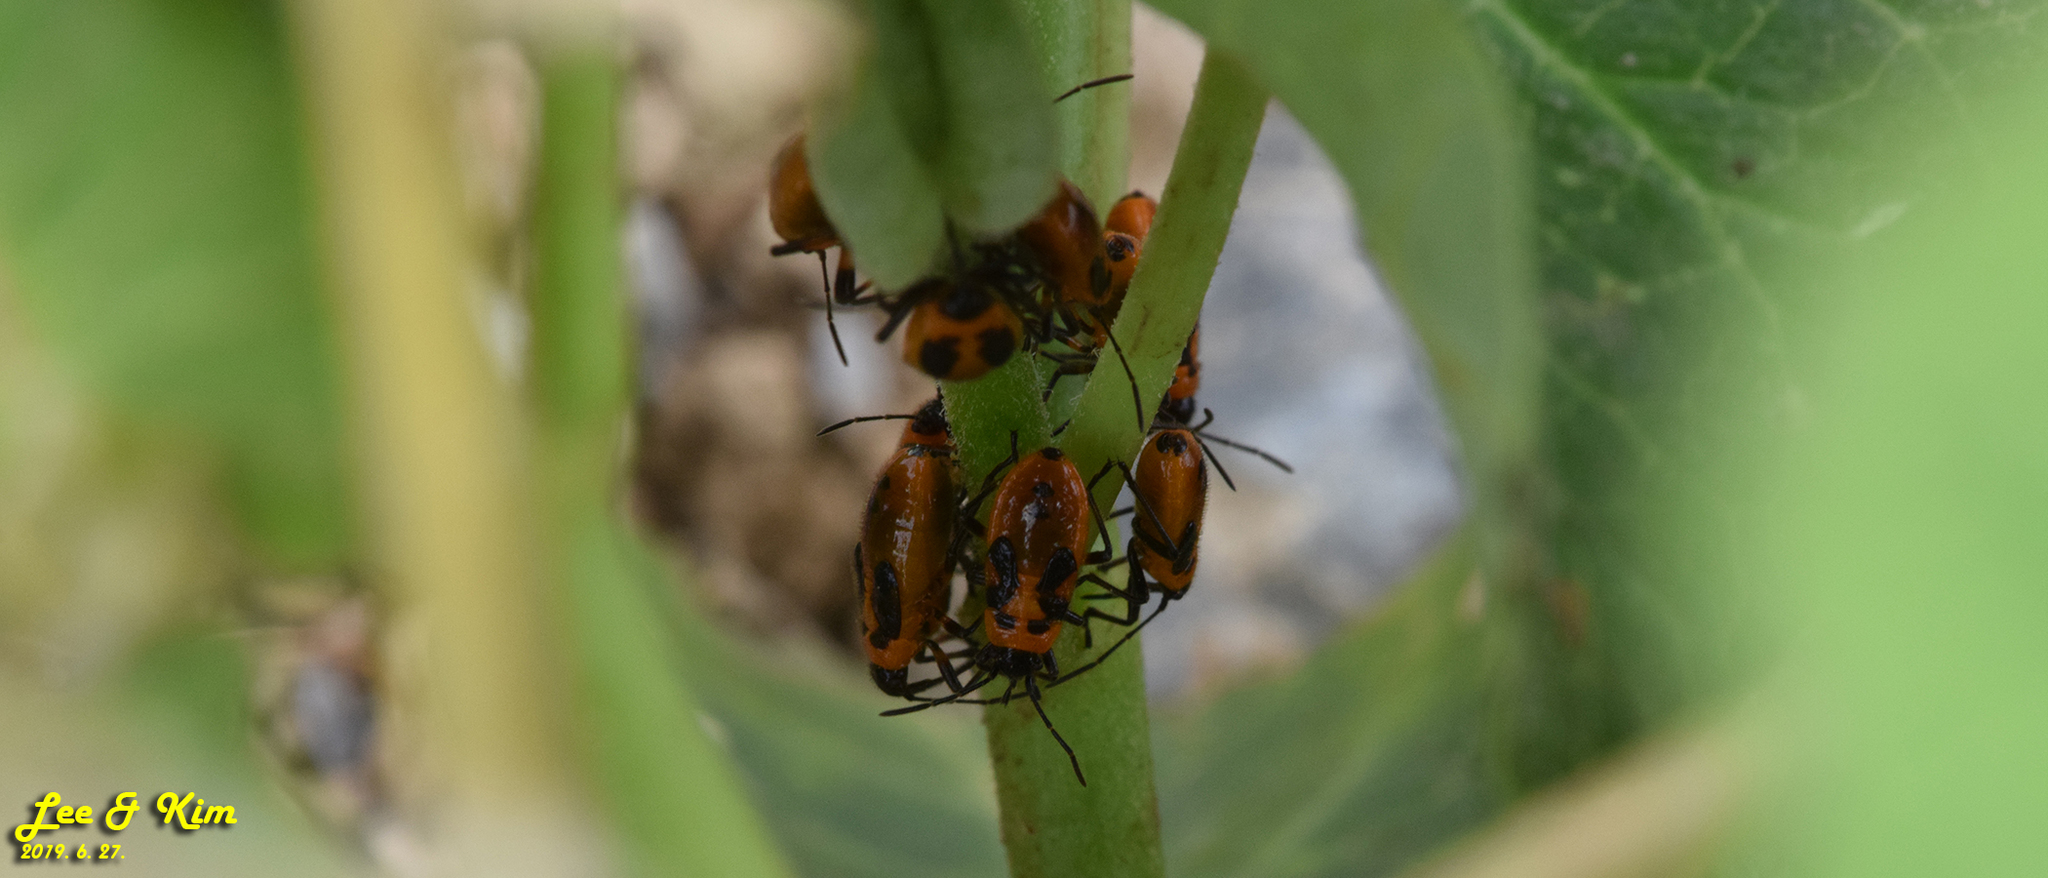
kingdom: Animalia
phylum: Arthropoda
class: Insecta
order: Hemiptera
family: Lygaeidae
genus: Tropidothorax
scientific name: Tropidothorax cruciger
